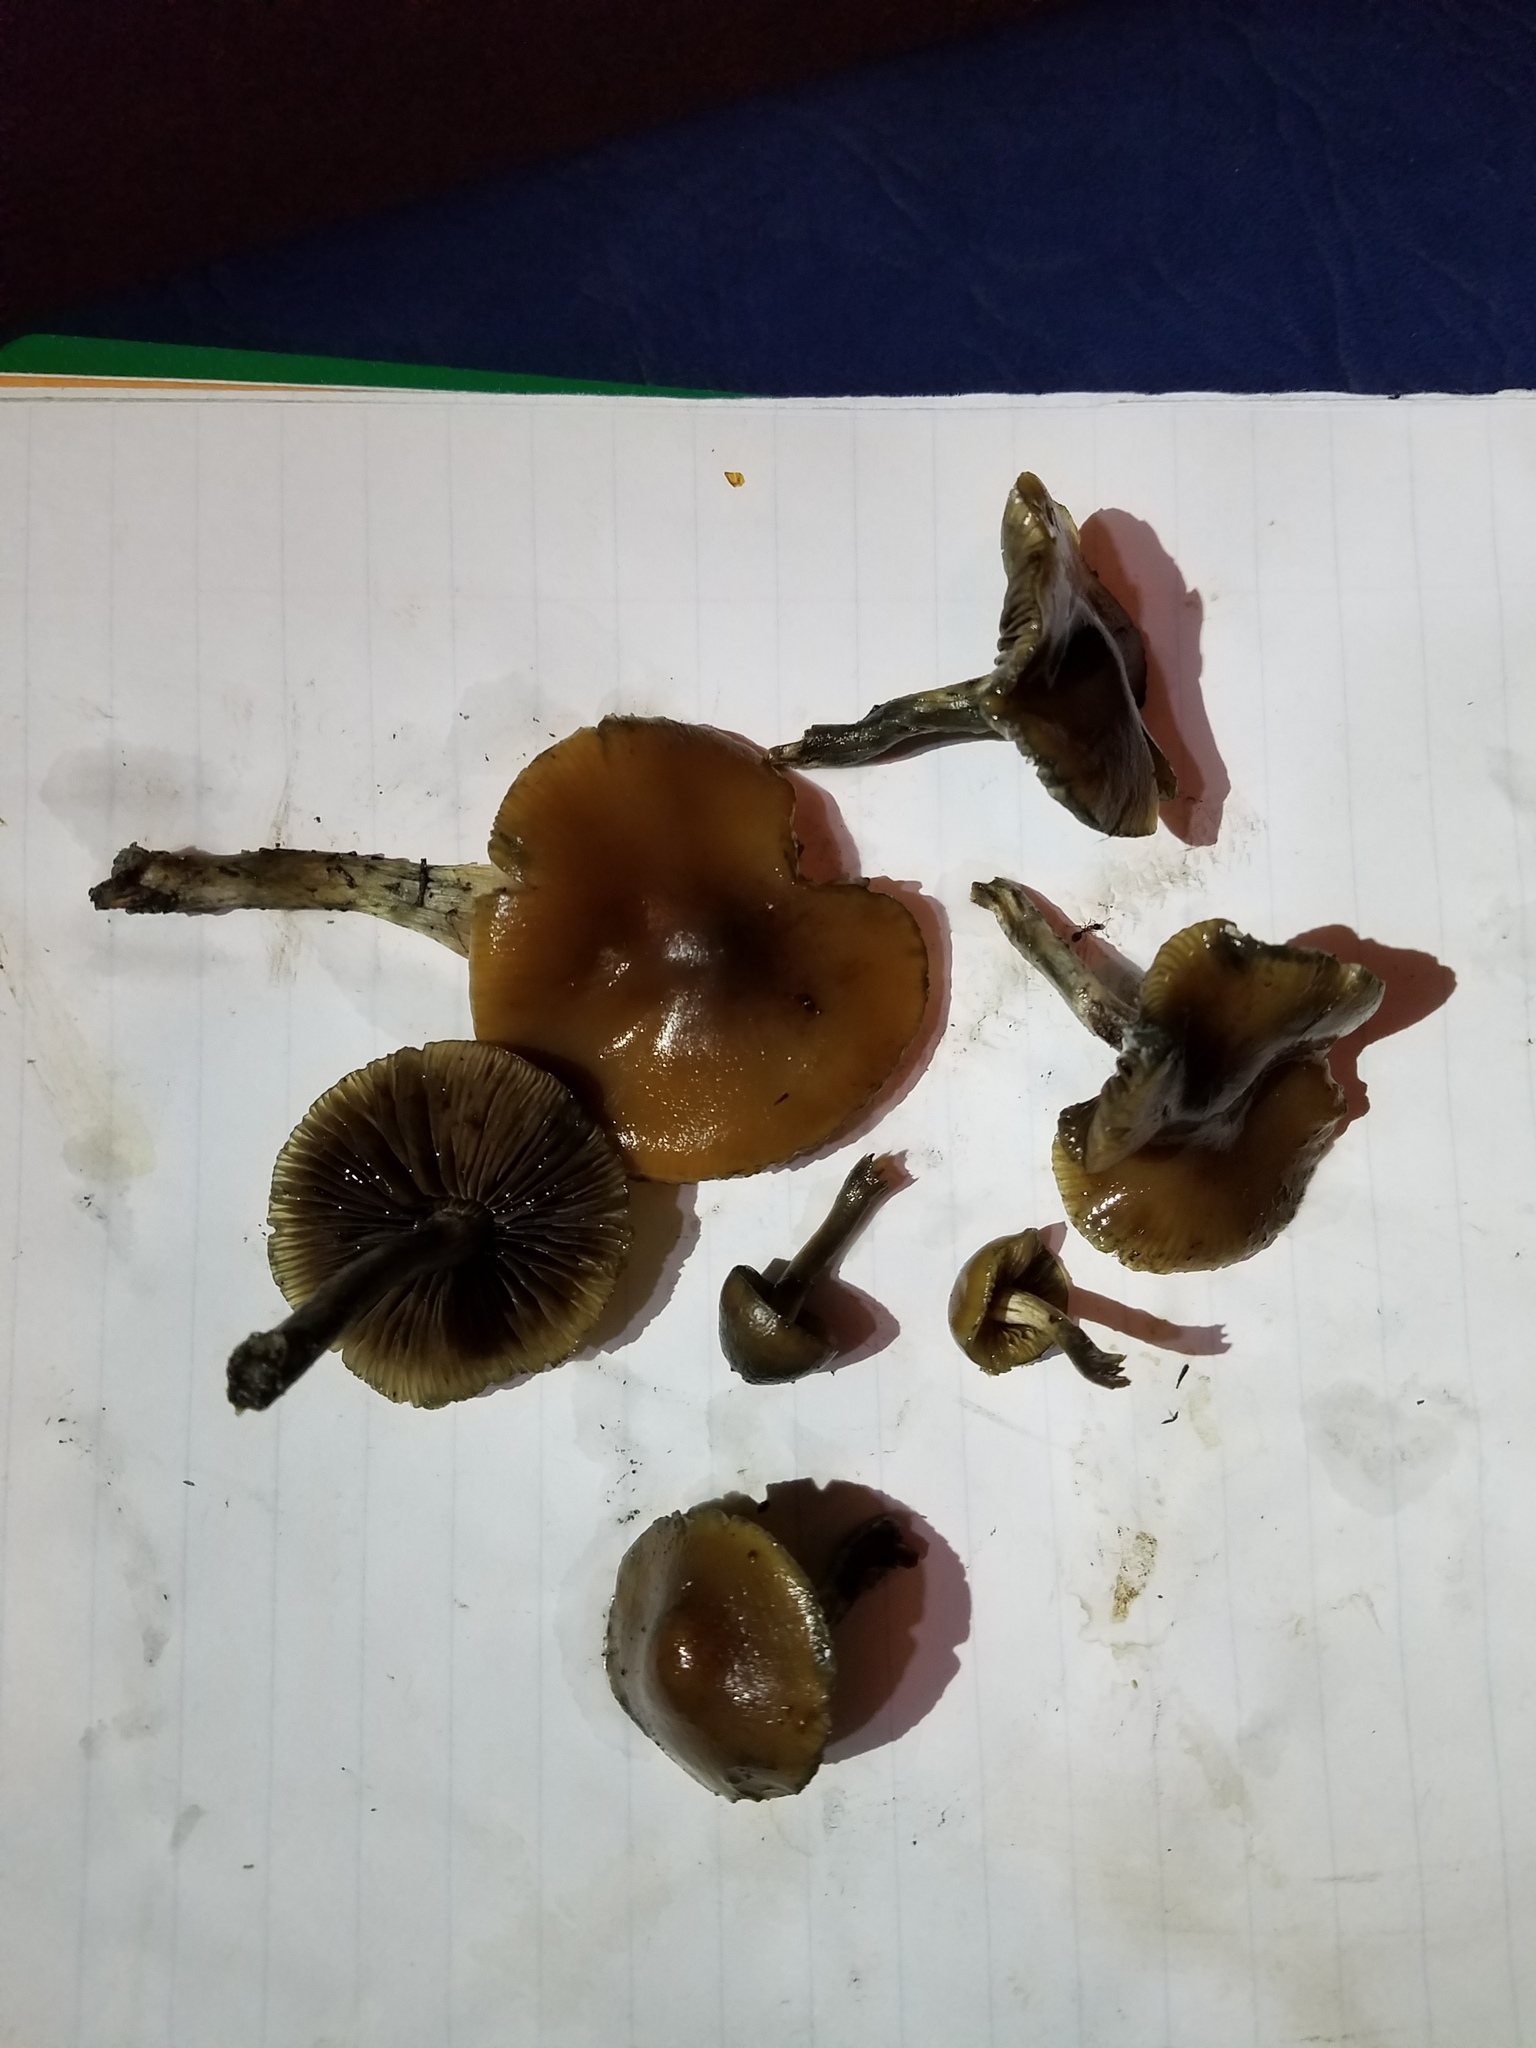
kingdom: Fungi
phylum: Basidiomycota
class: Agaricomycetes
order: Agaricales
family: Hymenogastraceae
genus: Psilocybe
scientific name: Psilocybe subaeruginosa
